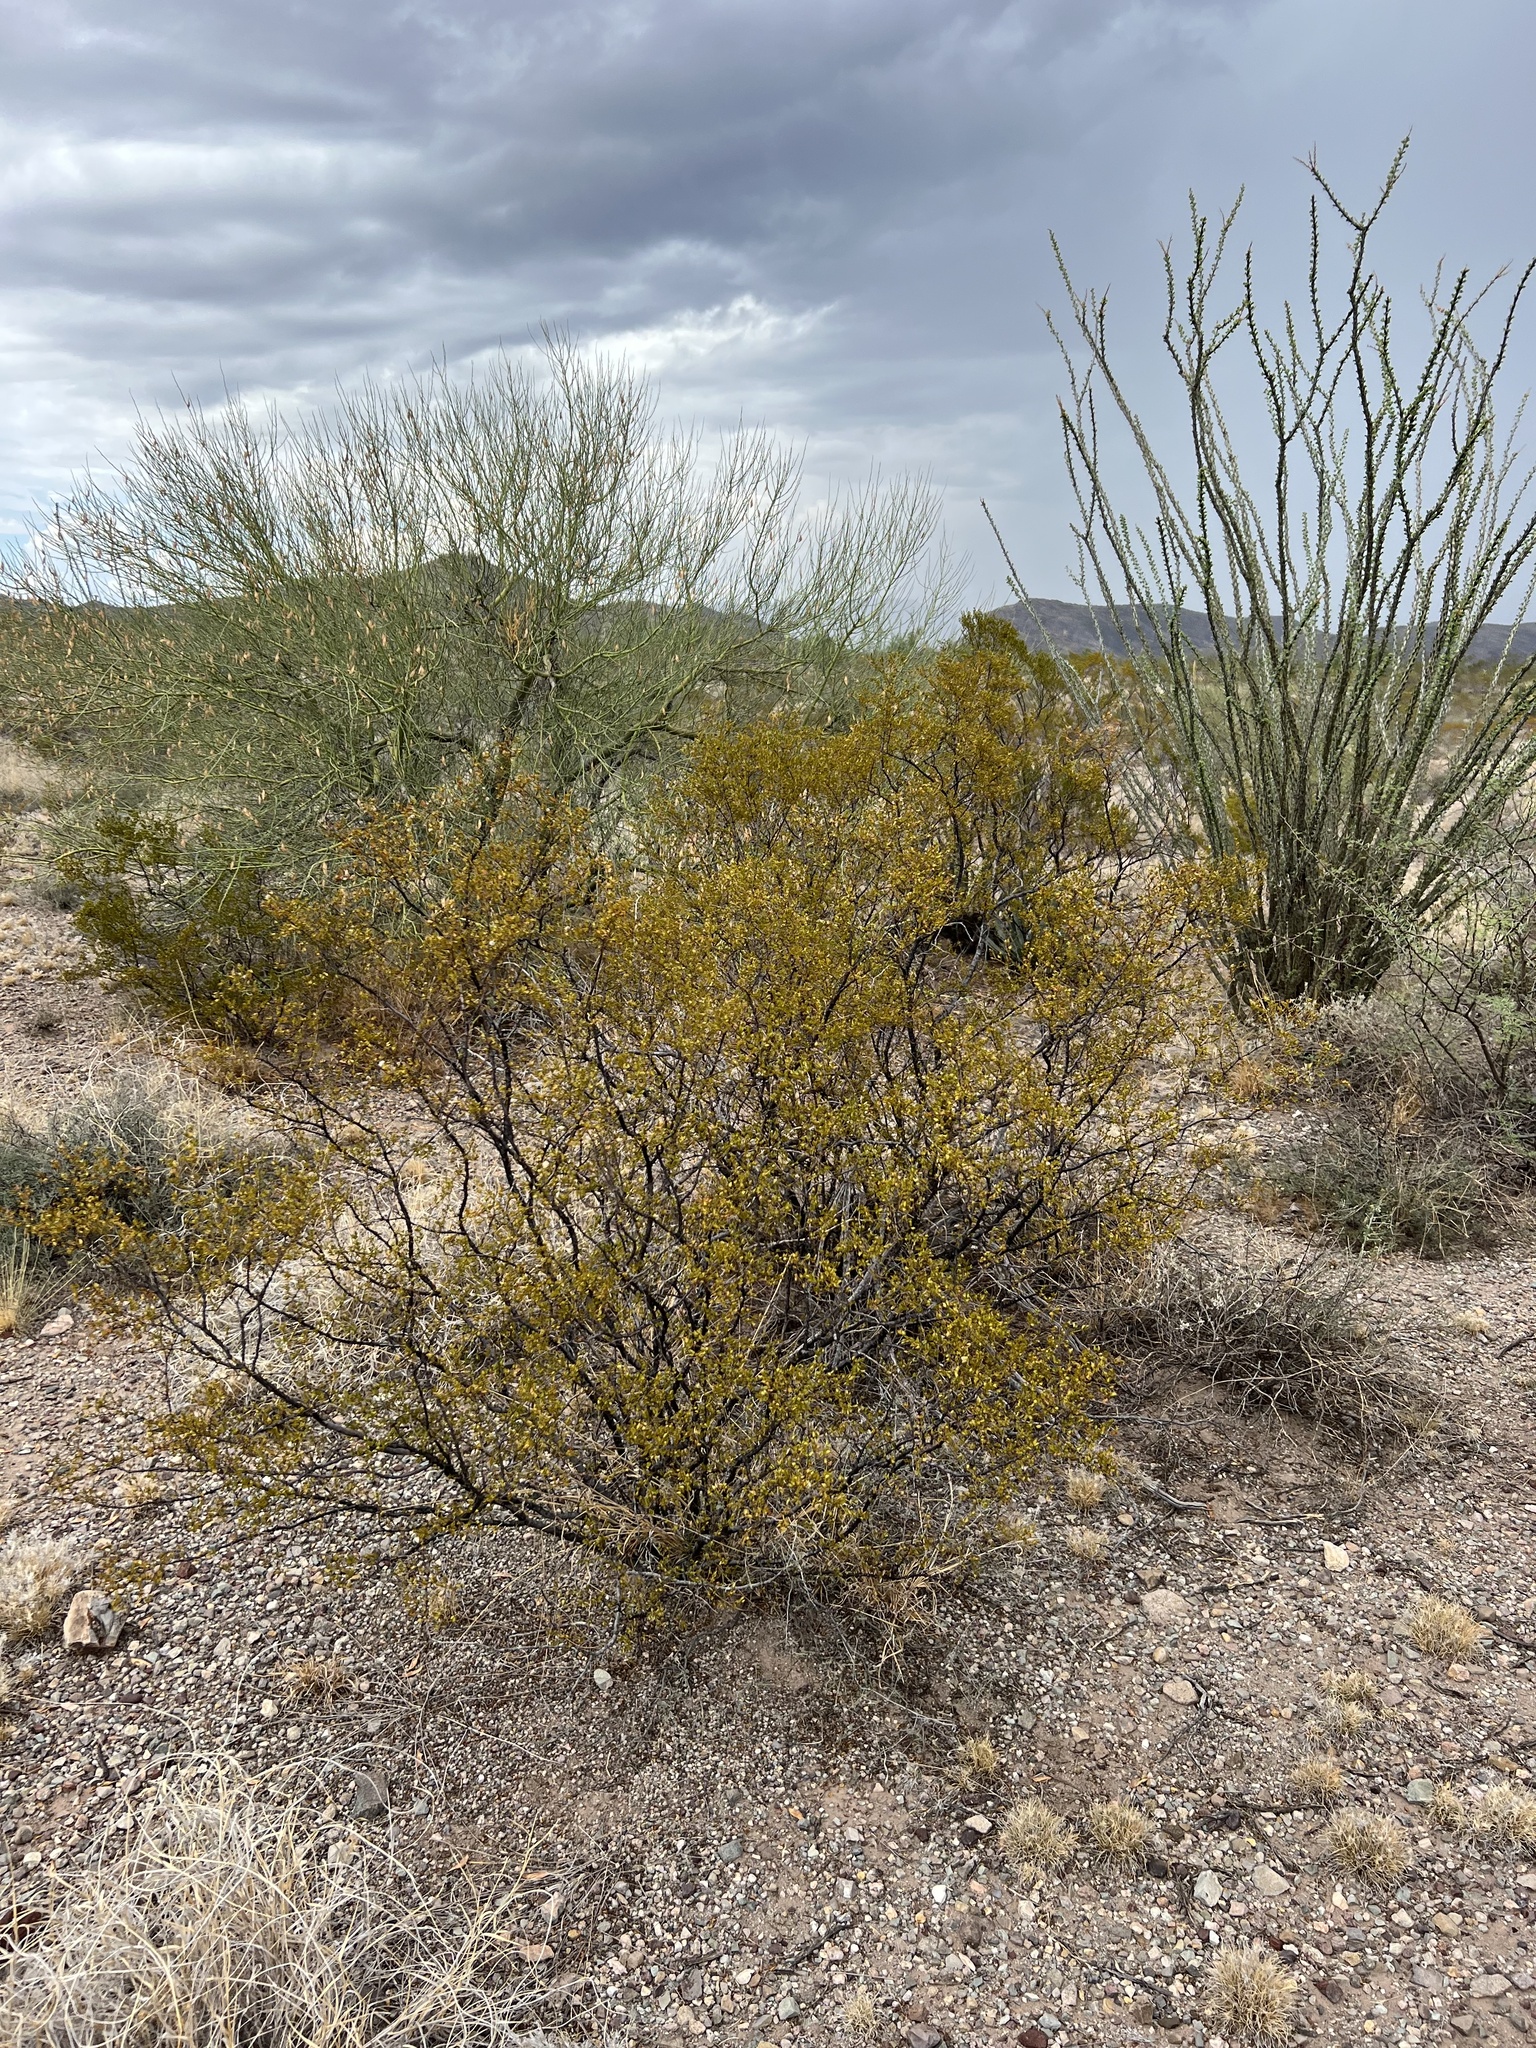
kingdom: Plantae
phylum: Tracheophyta
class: Magnoliopsida
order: Zygophyllales
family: Zygophyllaceae
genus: Larrea
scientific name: Larrea tridentata
